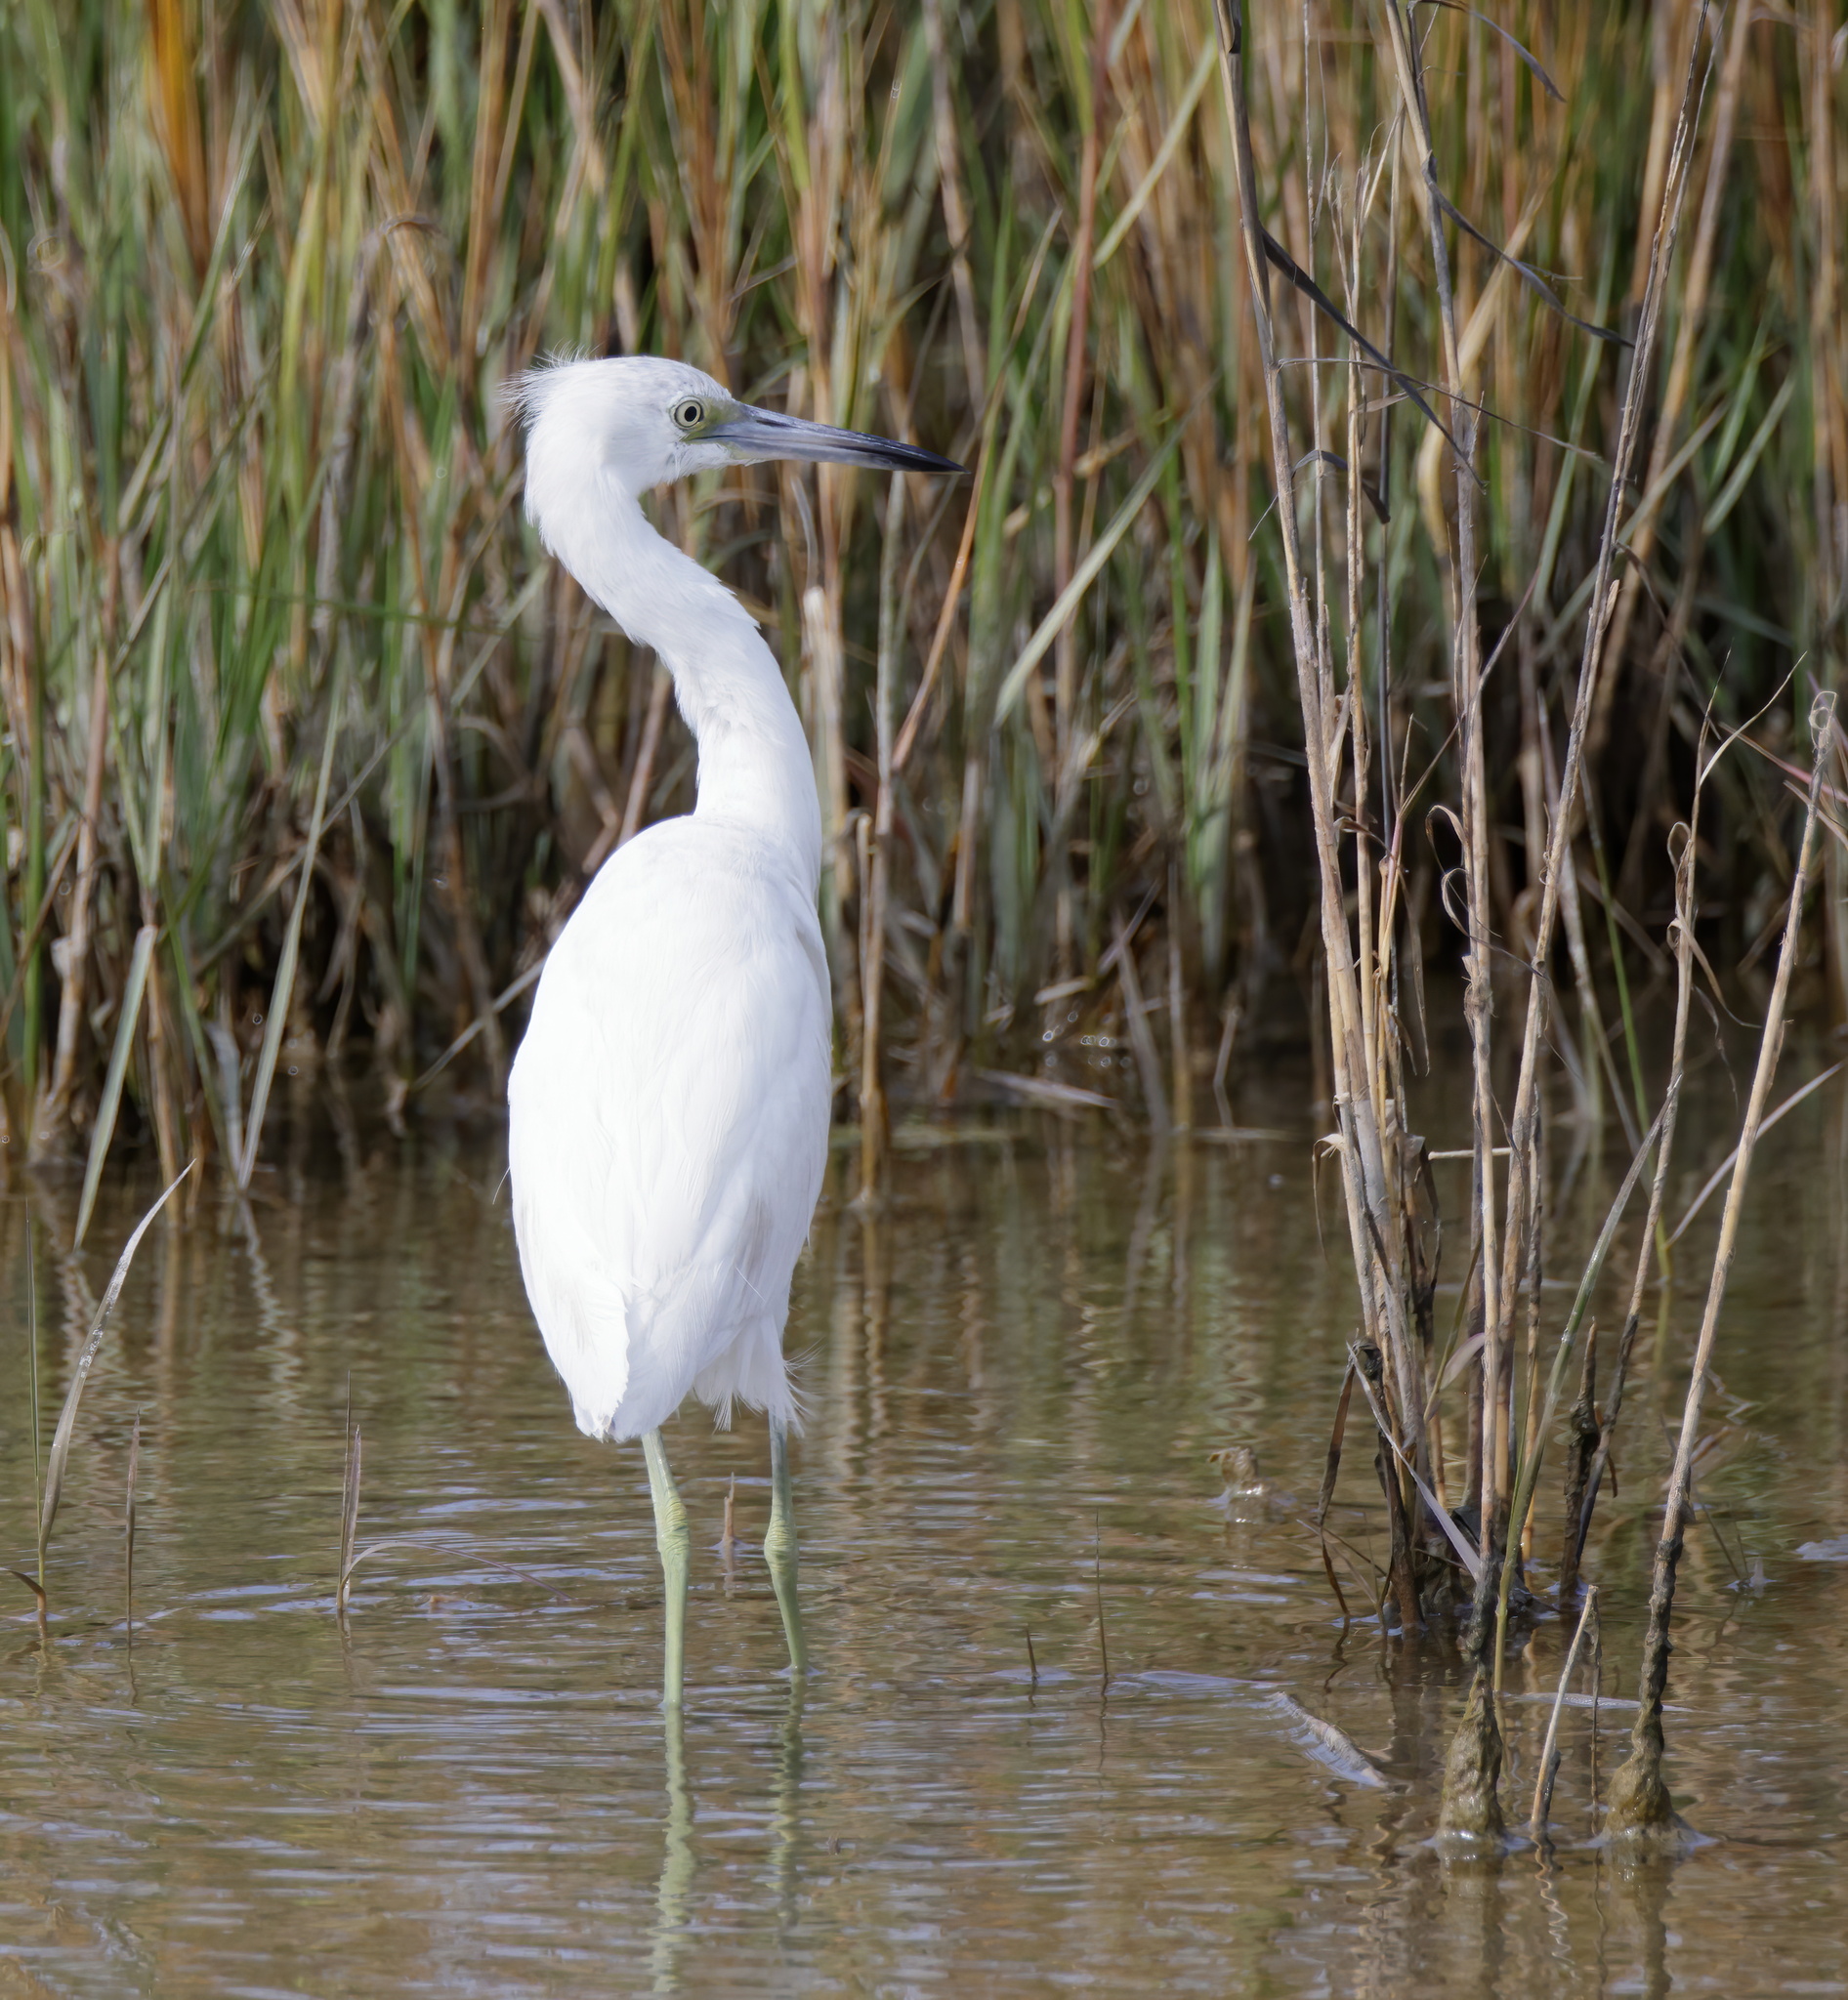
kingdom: Animalia
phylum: Chordata
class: Aves
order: Pelecaniformes
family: Ardeidae
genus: Egretta
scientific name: Egretta caerulea
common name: Little blue heron
